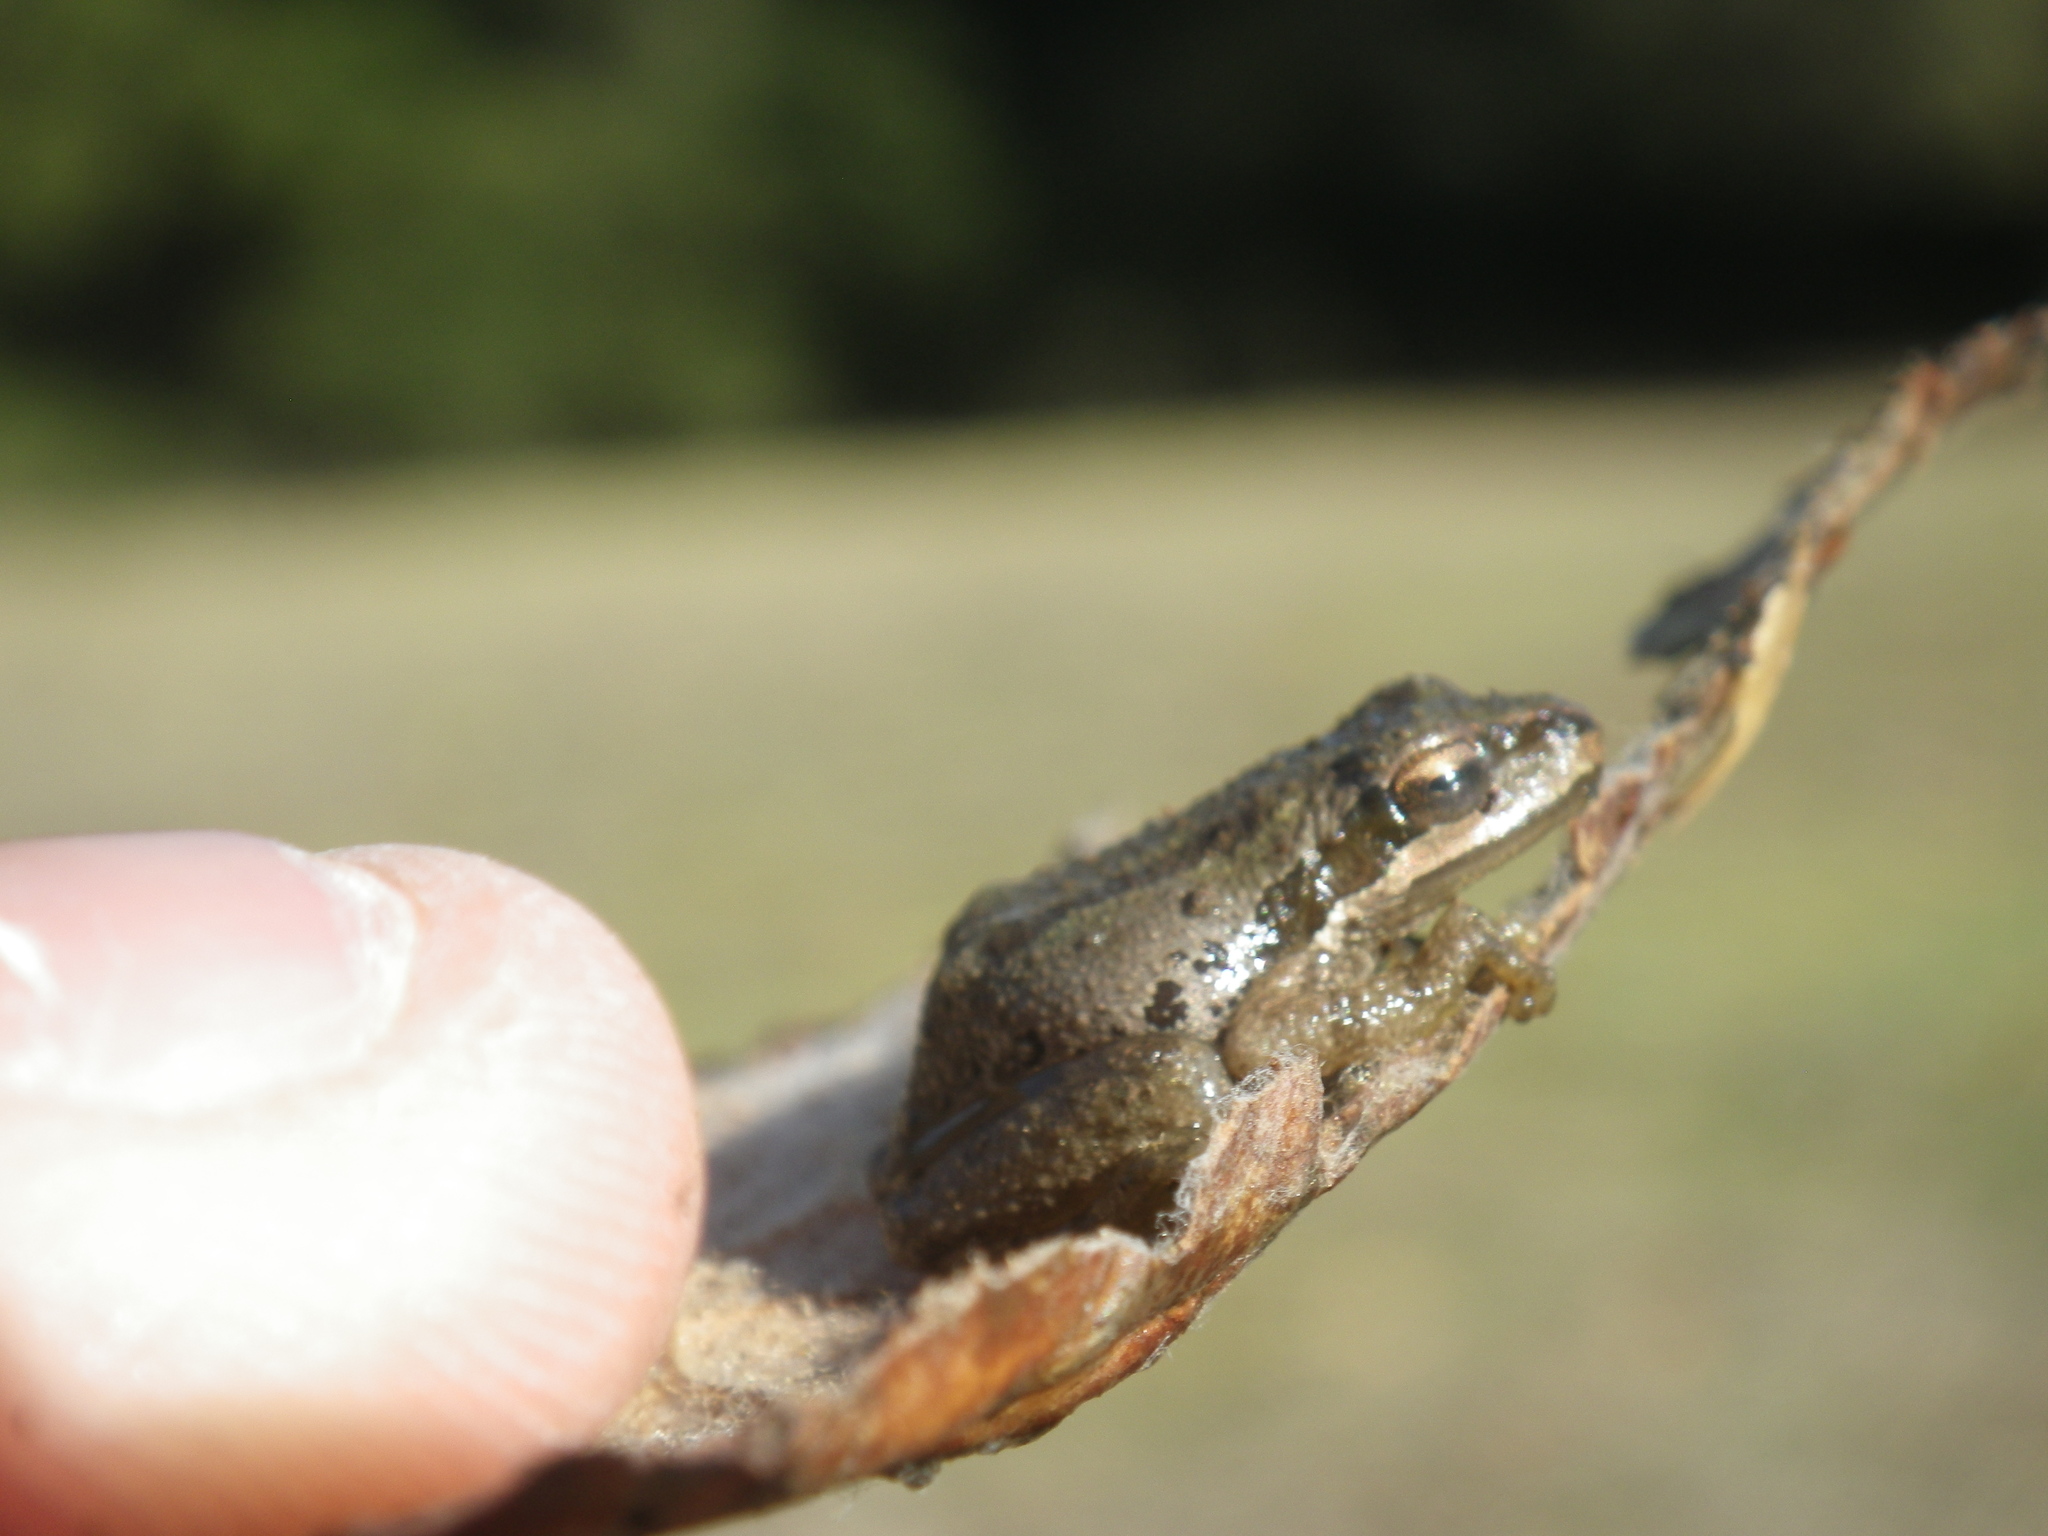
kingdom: Animalia
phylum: Chordata
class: Amphibia
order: Anura
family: Hylidae
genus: Pseudacris
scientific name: Pseudacris regilla
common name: Pacific chorus frog
